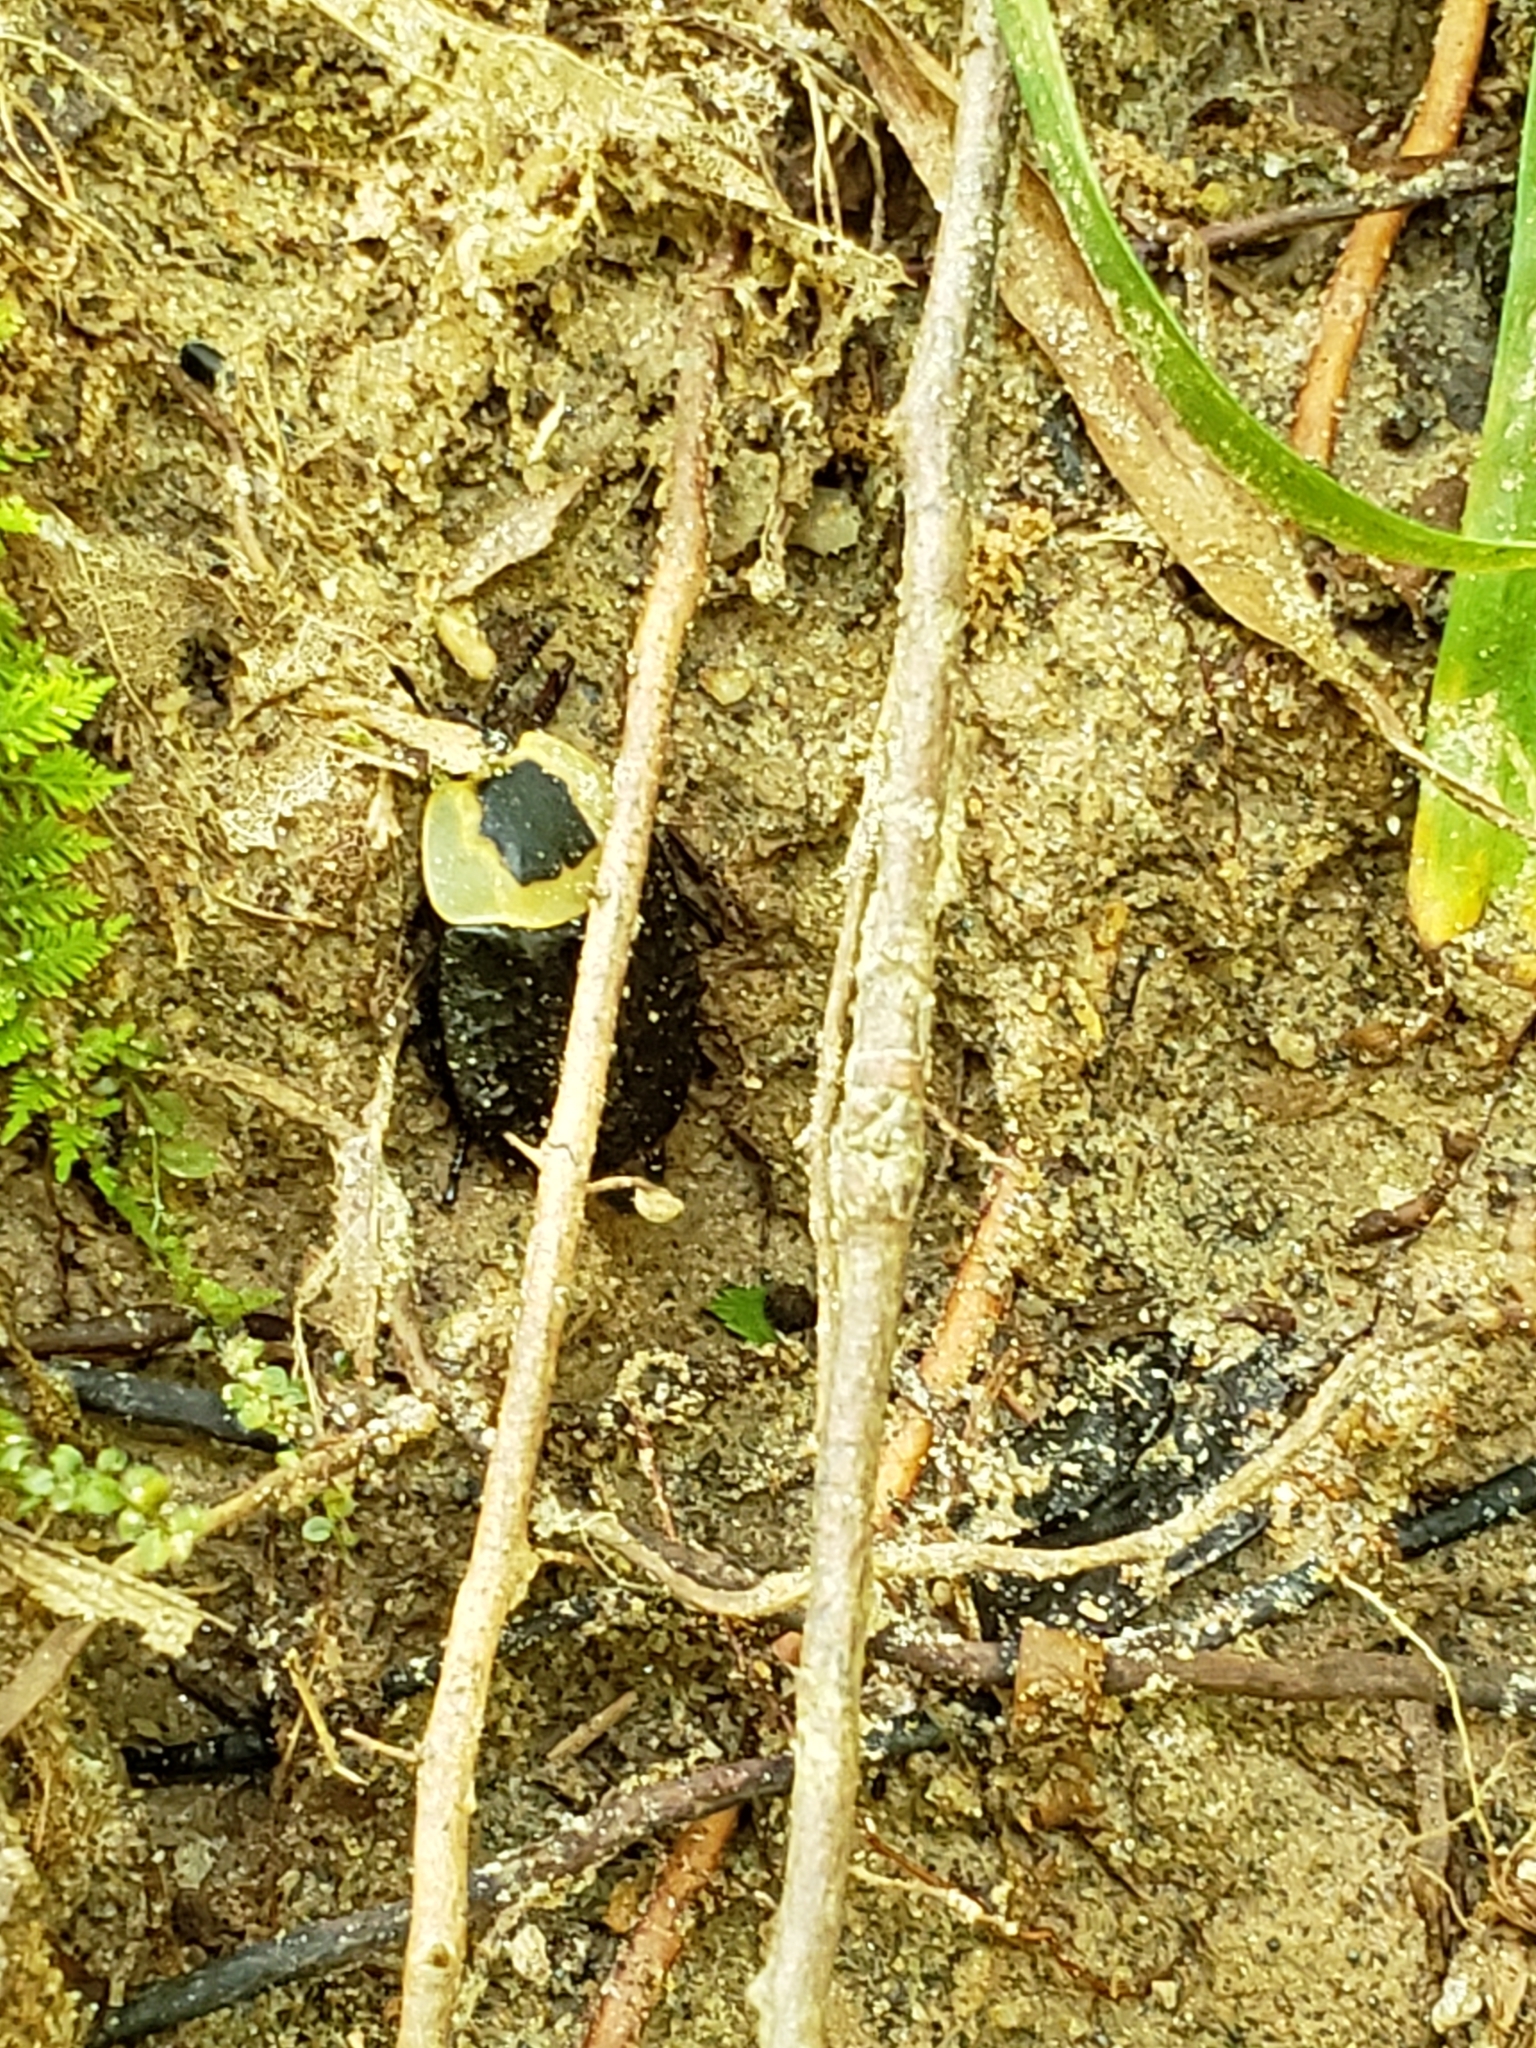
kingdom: Animalia
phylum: Arthropoda
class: Insecta
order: Coleoptera
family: Staphylinidae
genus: Necrophila
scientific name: Necrophila americana
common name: American carrion beetle
